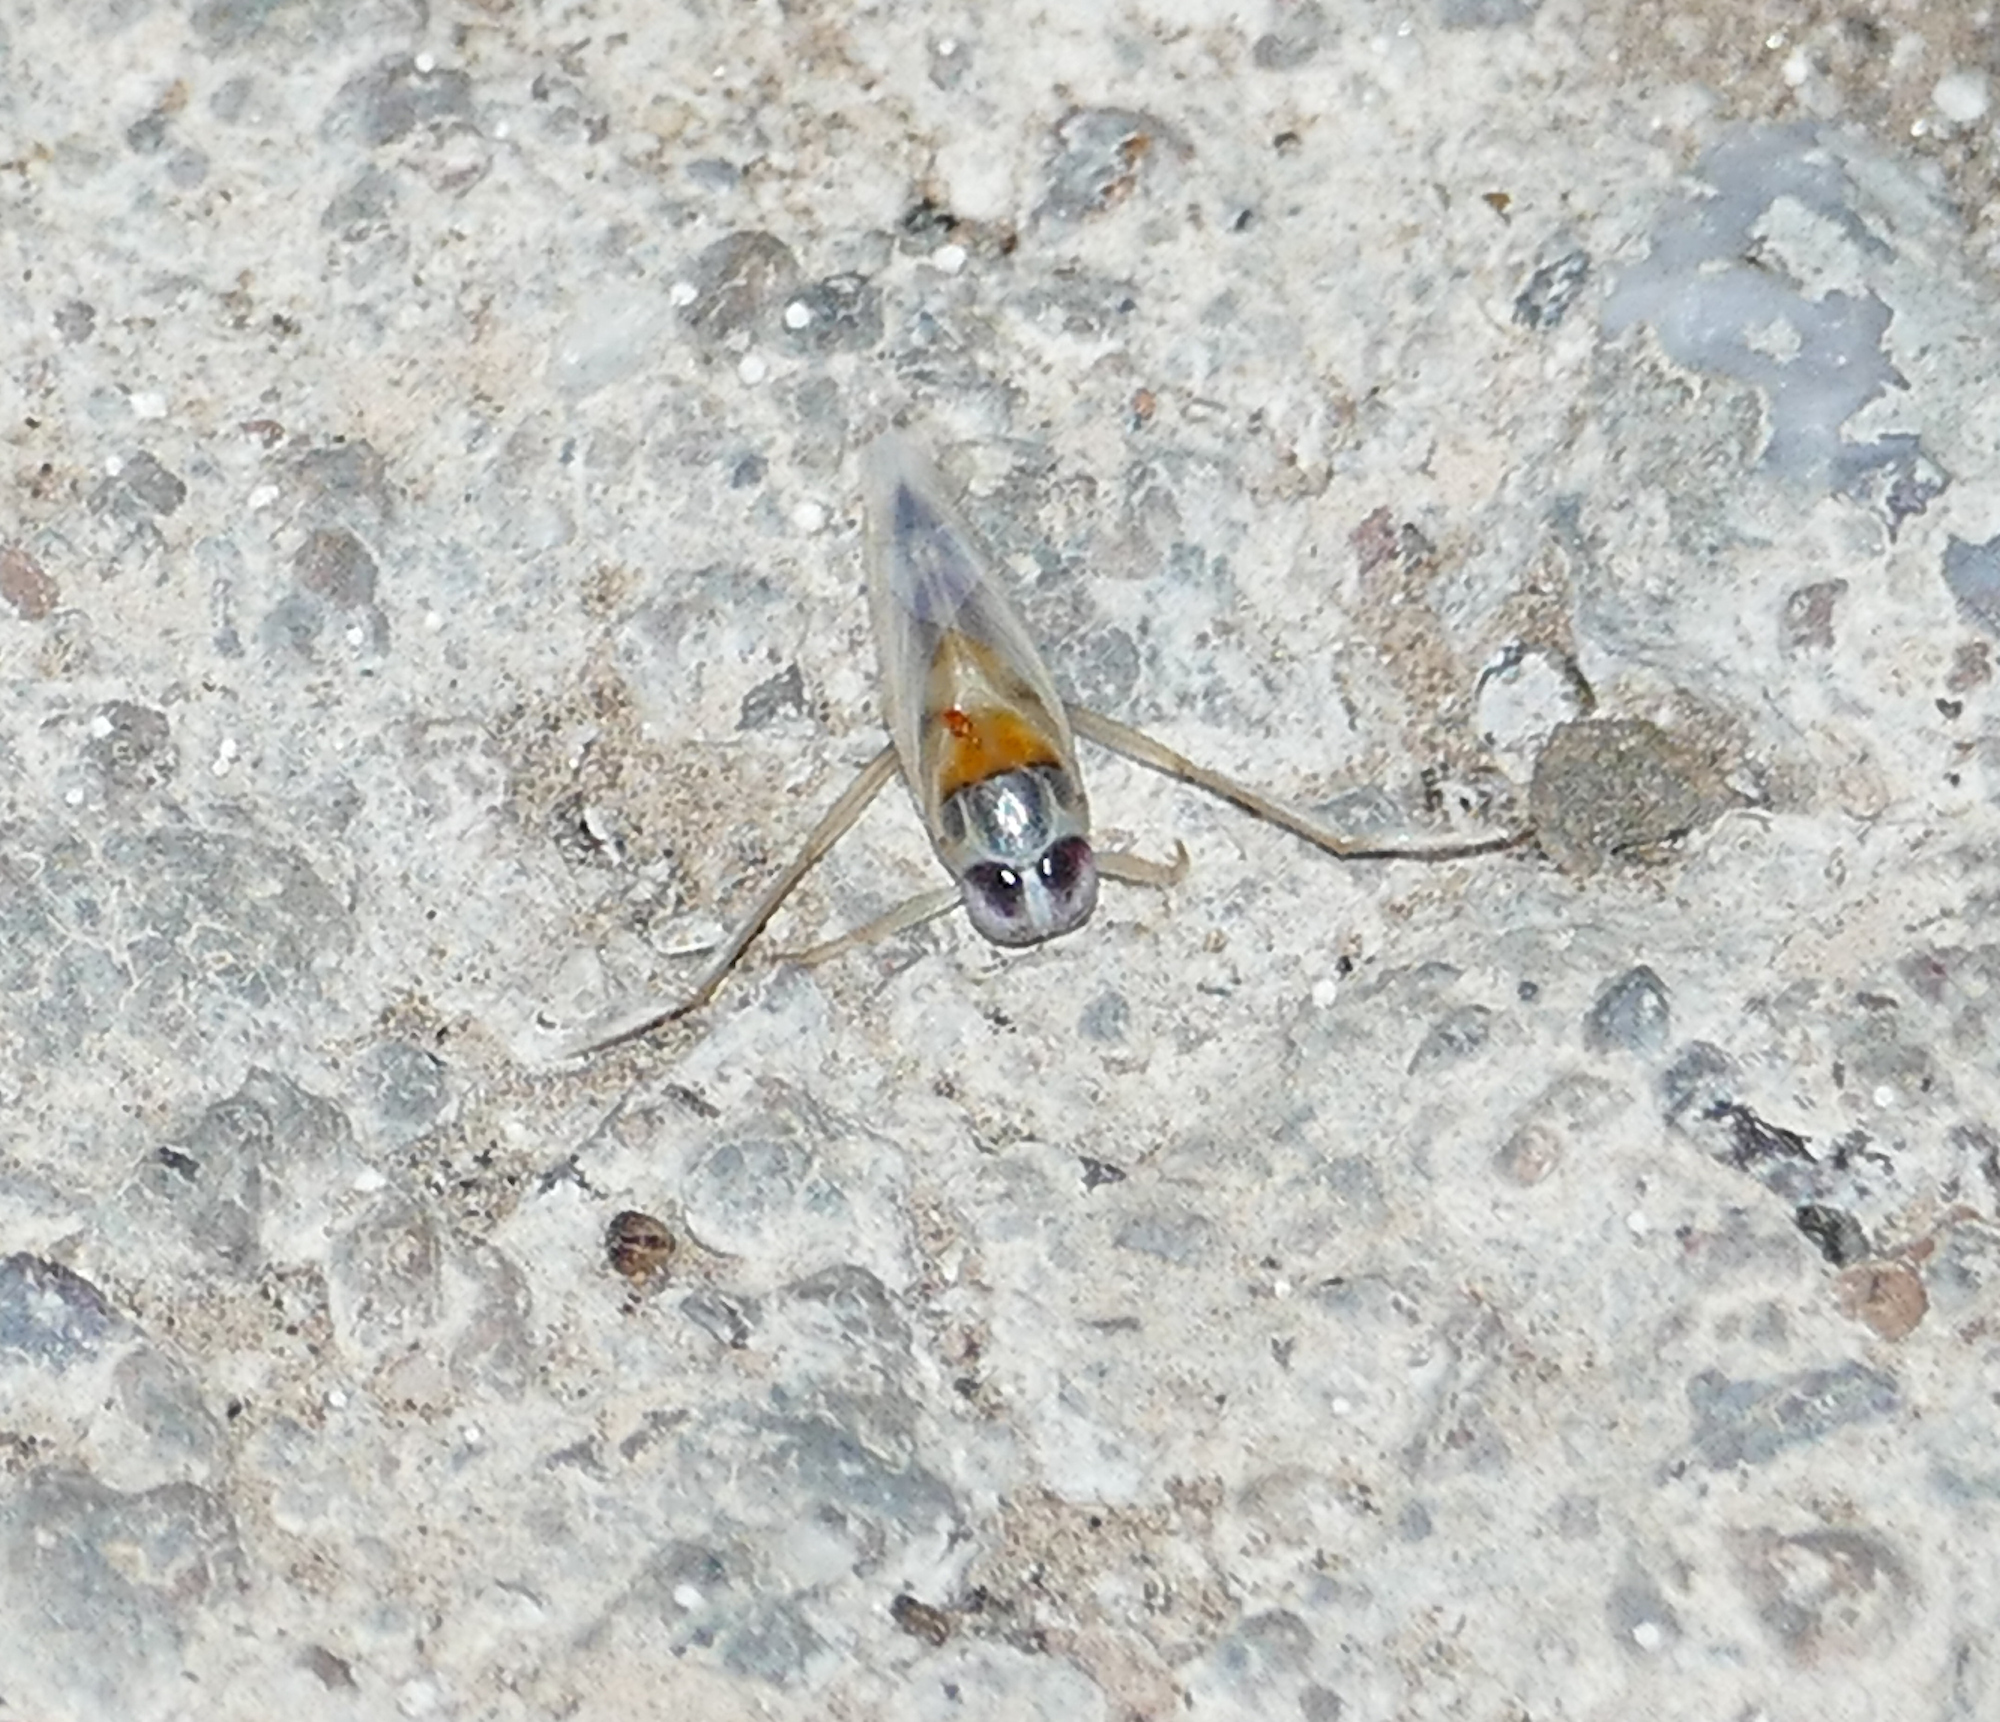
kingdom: Animalia
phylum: Arthropoda
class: Insecta
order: Hemiptera
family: Notonectidae
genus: Buenoa
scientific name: Buenoa
